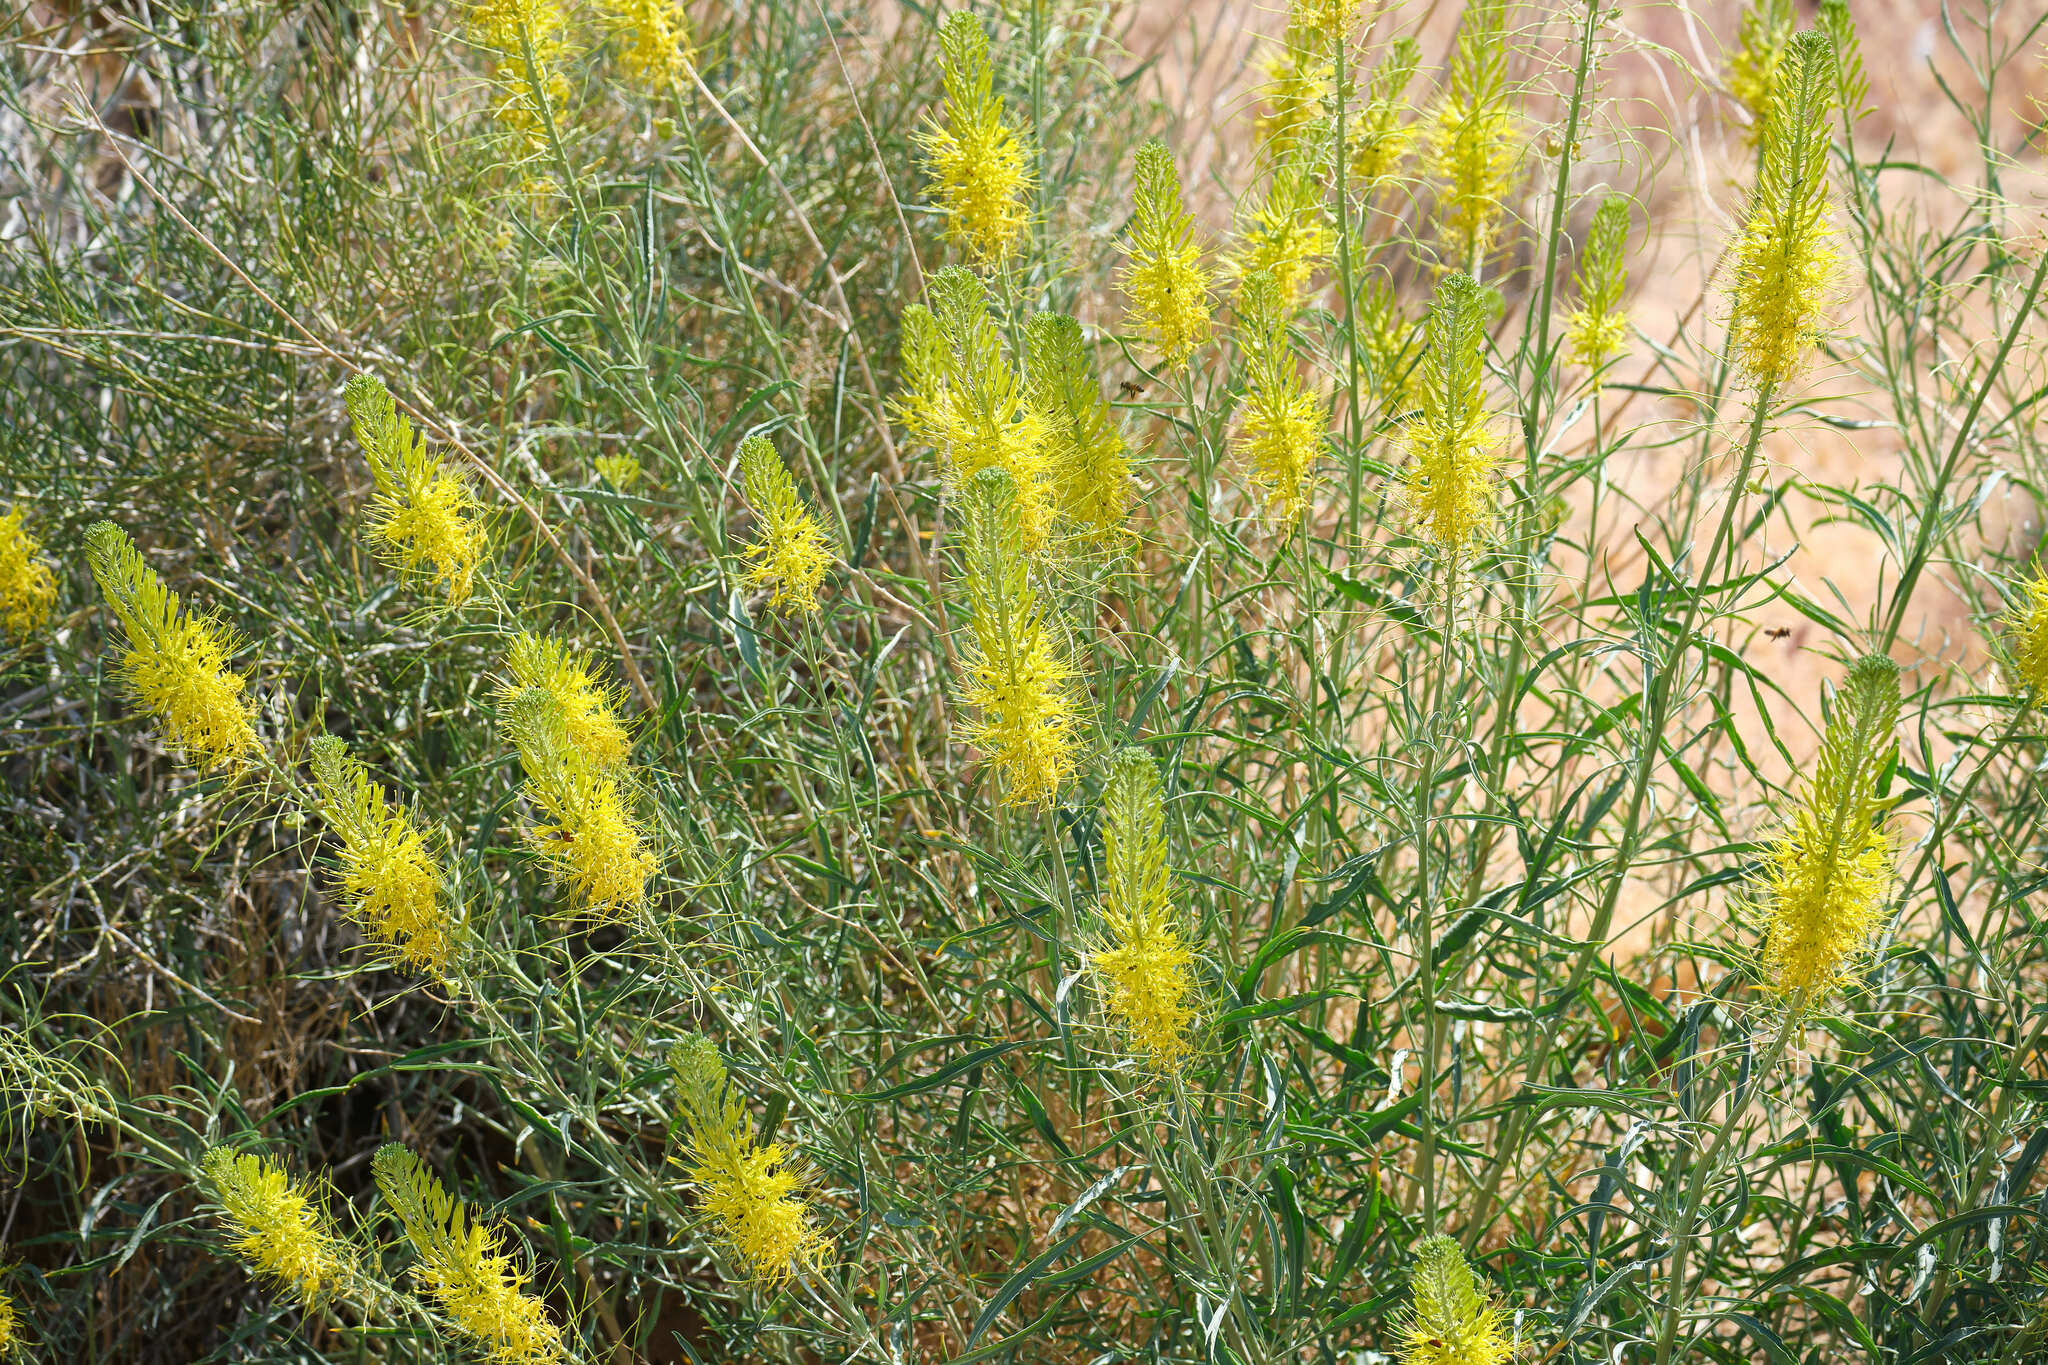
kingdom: Plantae
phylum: Tracheophyta
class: Magnoliopsida
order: Brassicales
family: Brassicaceae
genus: Stanleya
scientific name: Stanleya pinnata
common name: Prince's-plume
